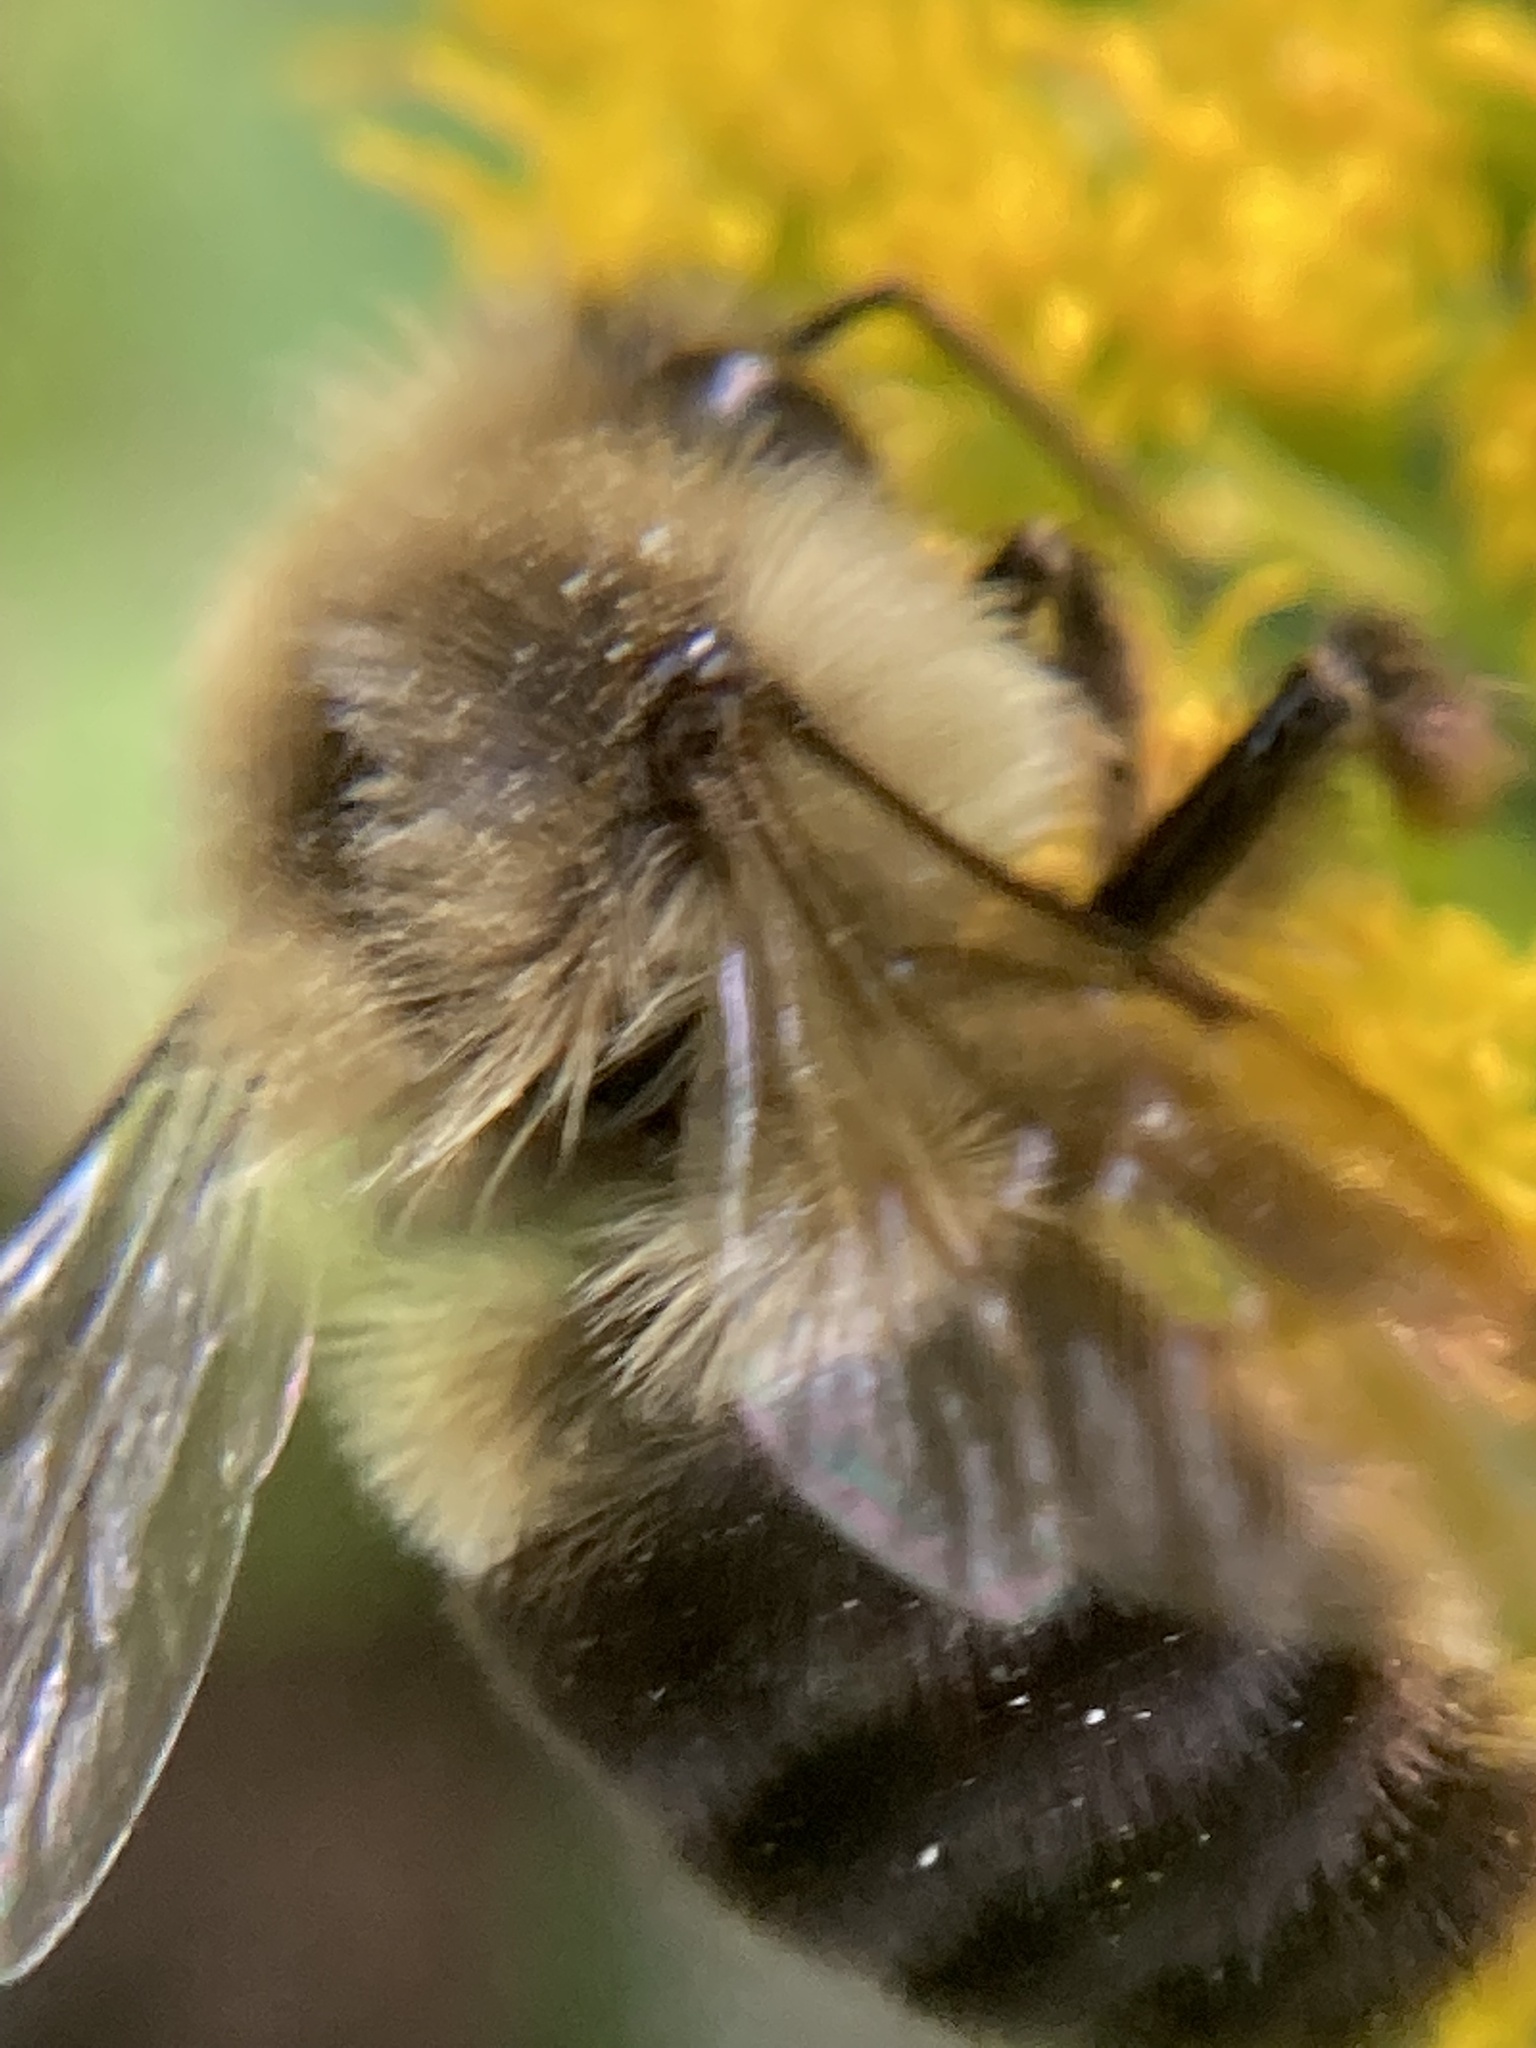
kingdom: Animalia
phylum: Arthropoda
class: Insecta
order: Hymenoptera
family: Apidae
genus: Bombus
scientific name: Bombus impatiens
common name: Common eastern bumble bee
